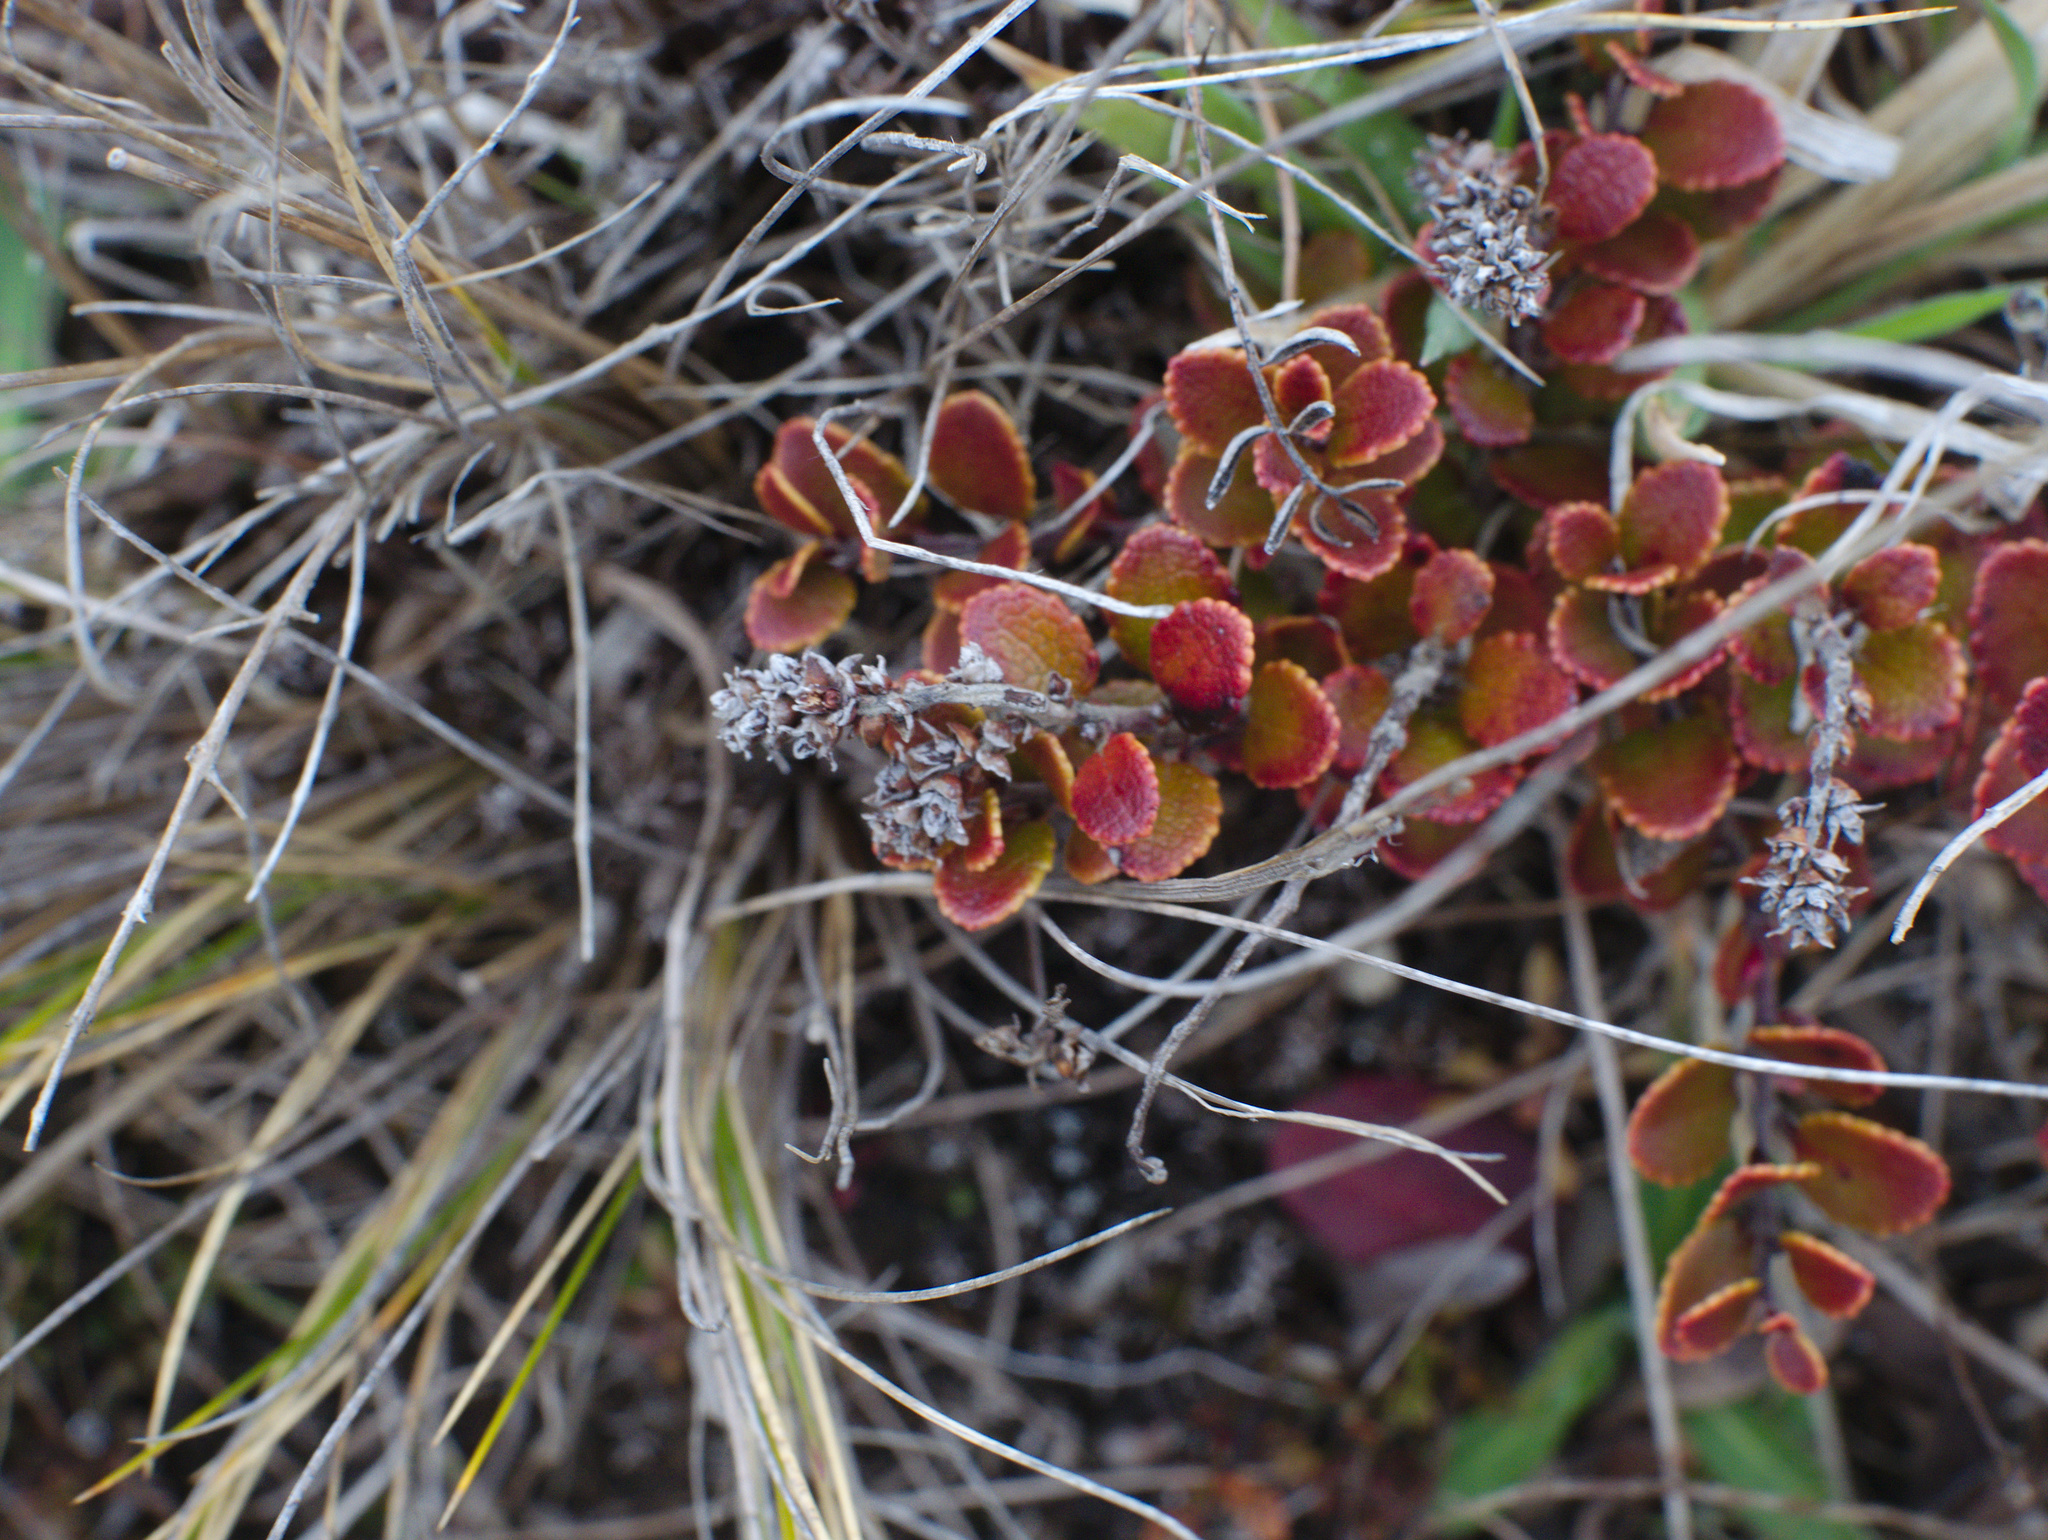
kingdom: Plantae
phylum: Tracheophyta
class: Magnoliopsida
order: Ericales
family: Ericaceae
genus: Gaultheria
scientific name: Gaultheria colensoi
